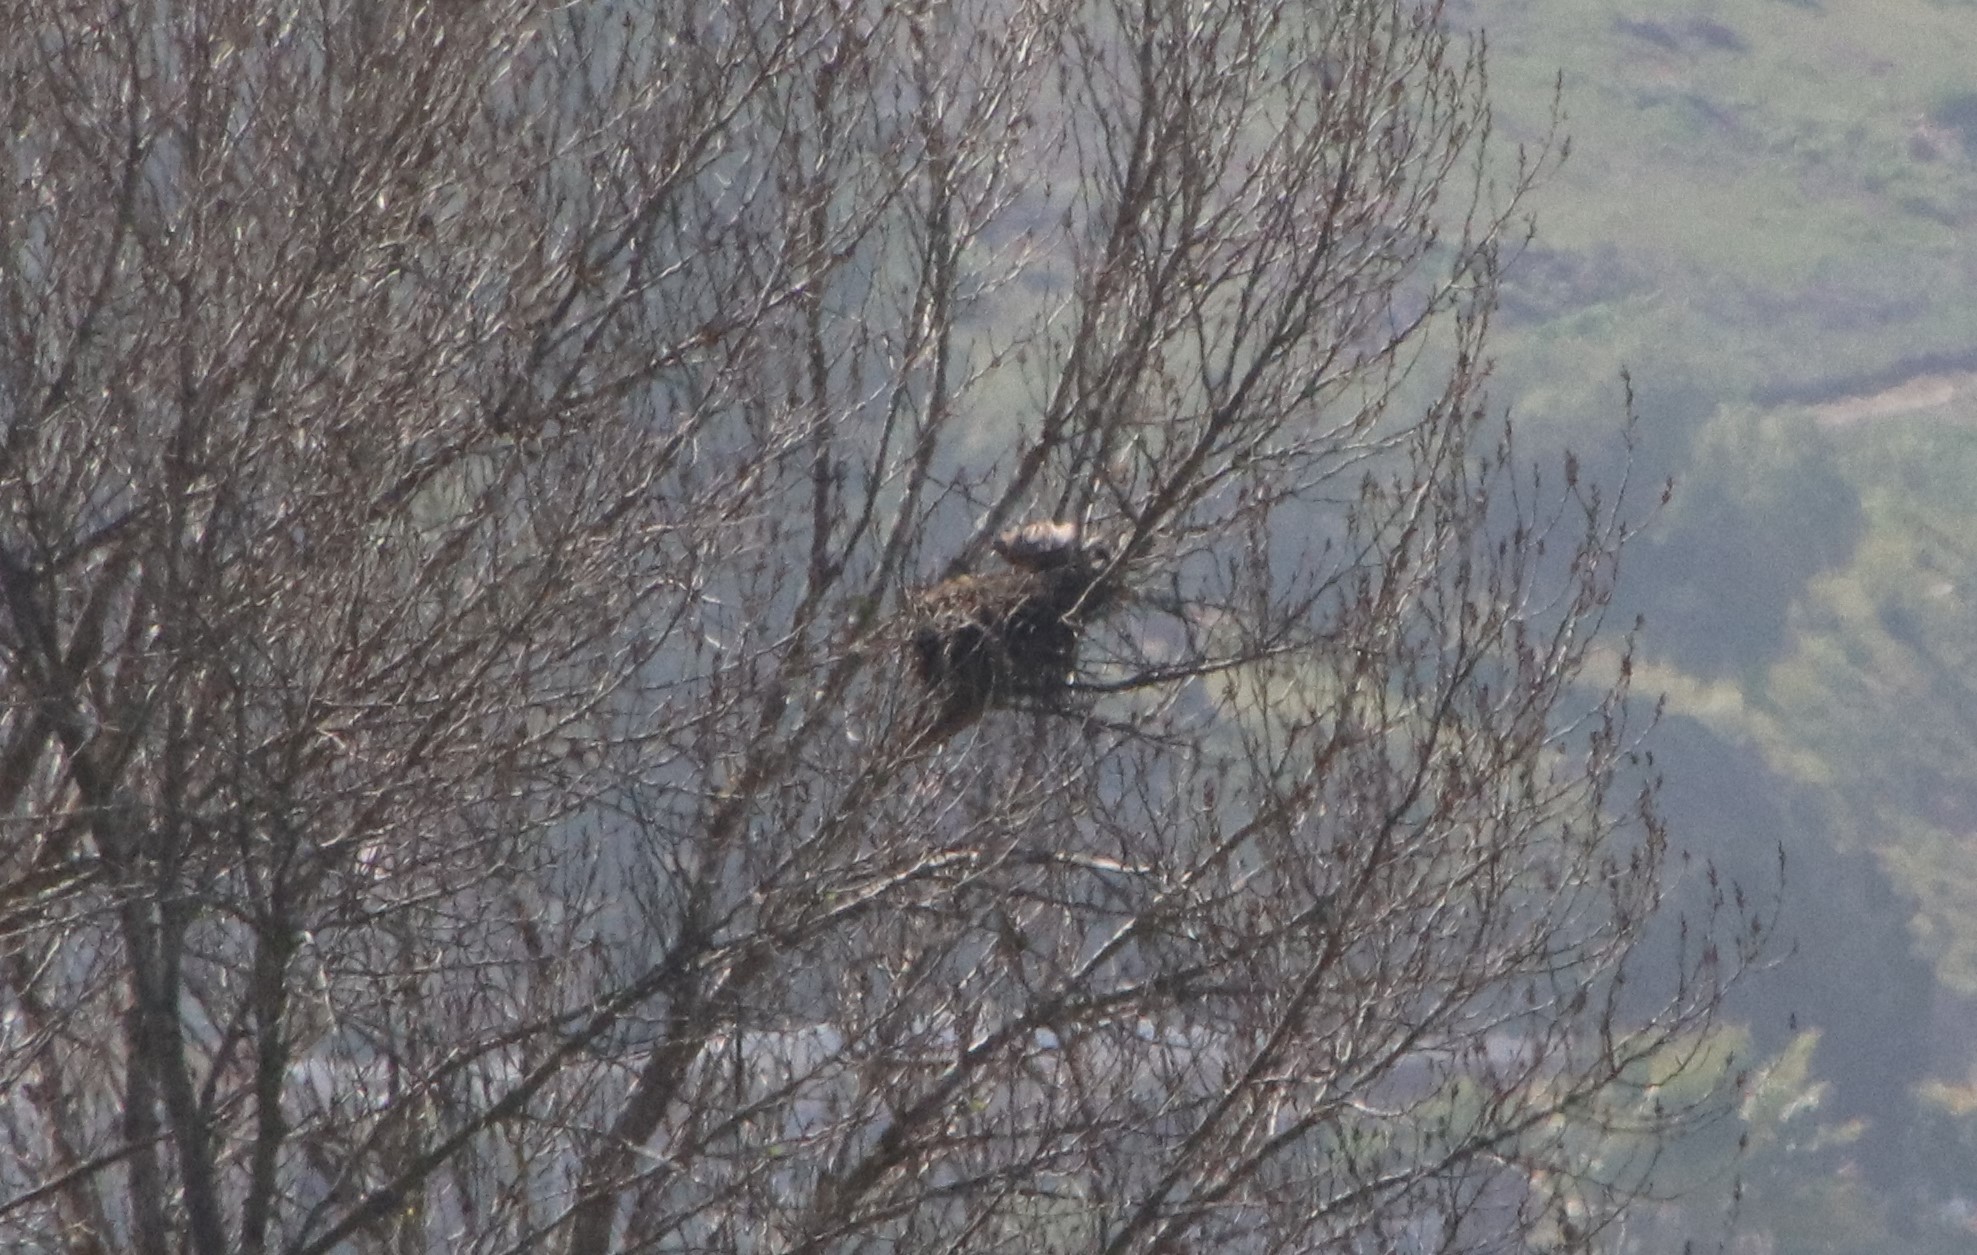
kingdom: Animalia
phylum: Chordata
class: Aves
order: Accipitriformes
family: Accipitridae
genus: Buteo
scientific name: Buteo lineatus
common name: Red-shouldered hawk
